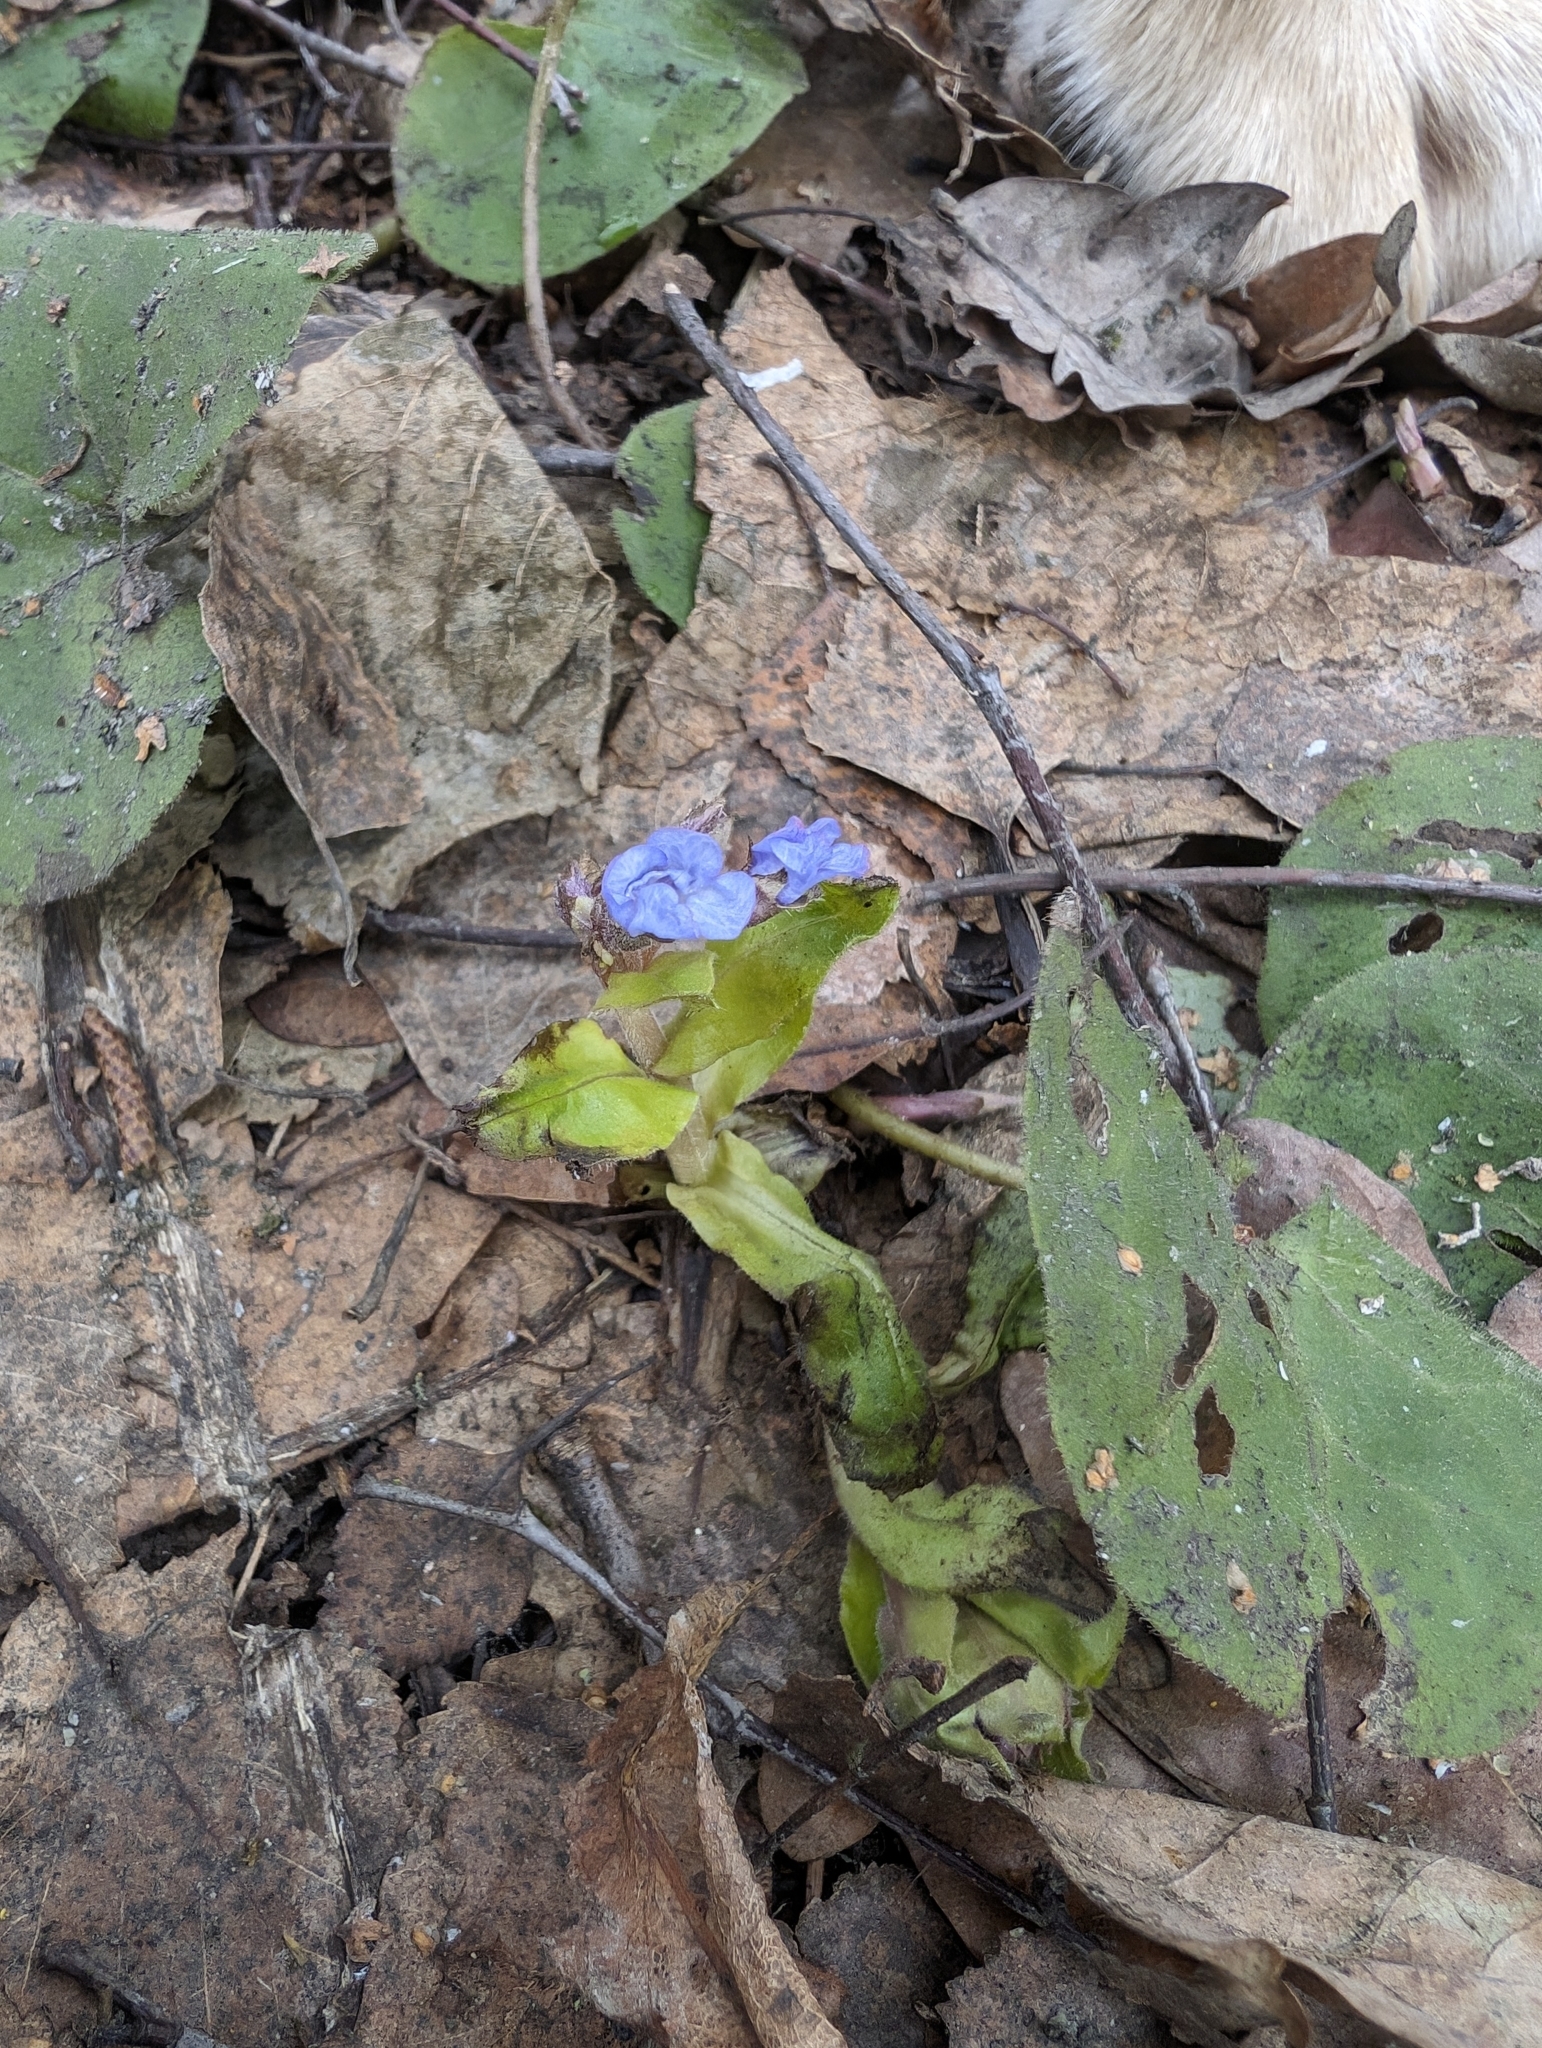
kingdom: Plantae
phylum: Tracheophyta
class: Magnoliopsida
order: Boraginales
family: Boraginaceae
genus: Pulmonaria
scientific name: Pulmonaria obscura
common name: Suffolk lungwort
